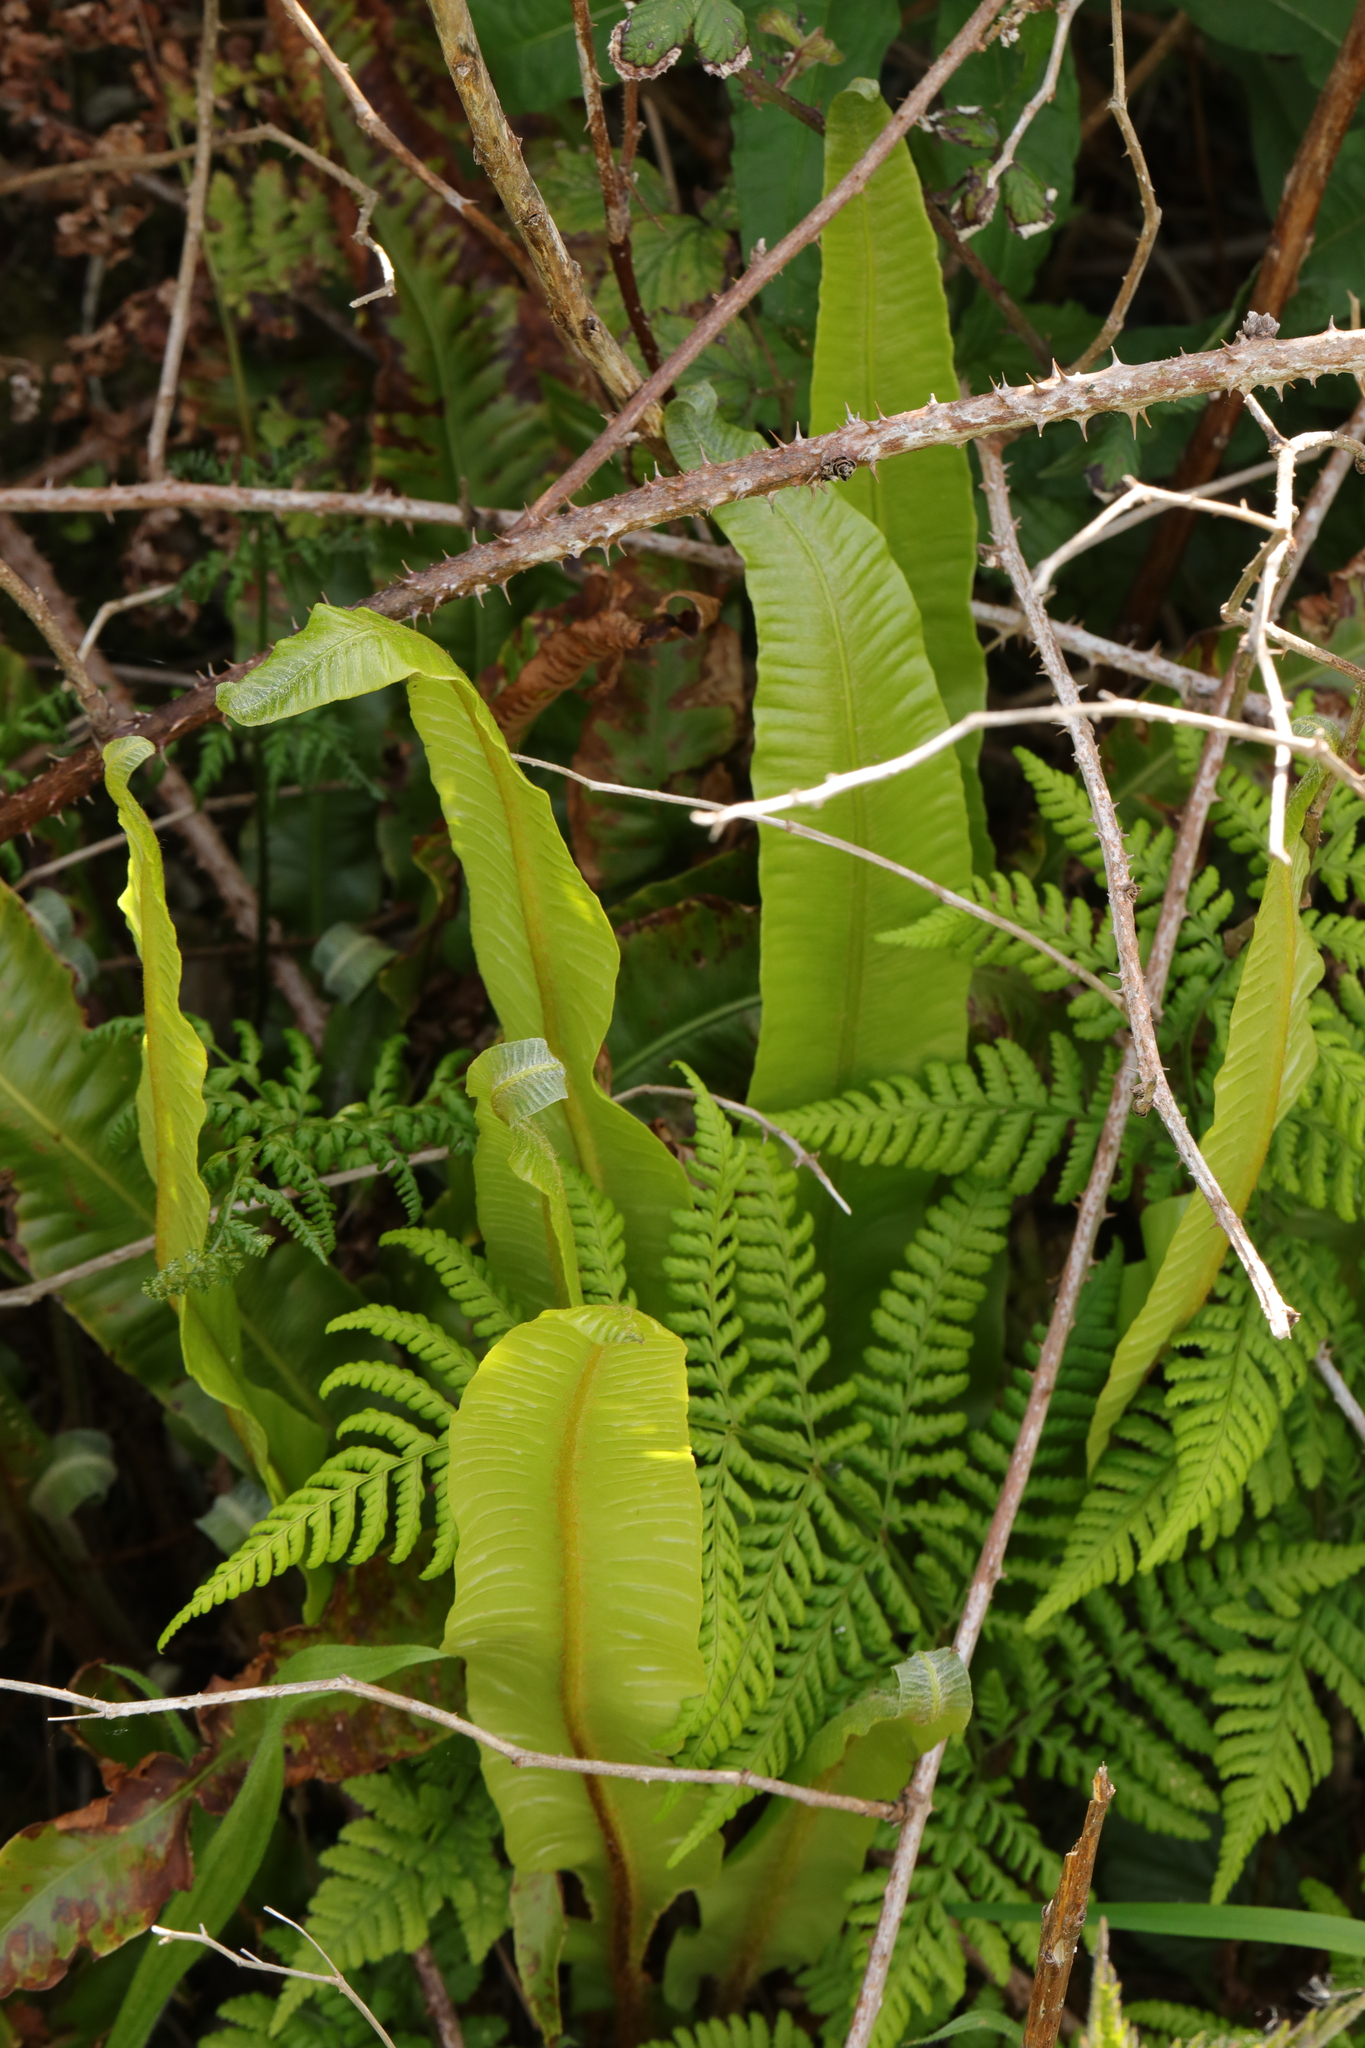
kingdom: Plantae
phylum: Tracheophyta
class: Polypodiopsida
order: Polypodiales
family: Aspleniaceae
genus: Asplenium
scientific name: Asplenium scolopendrium
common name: Hart's-tongue fern
